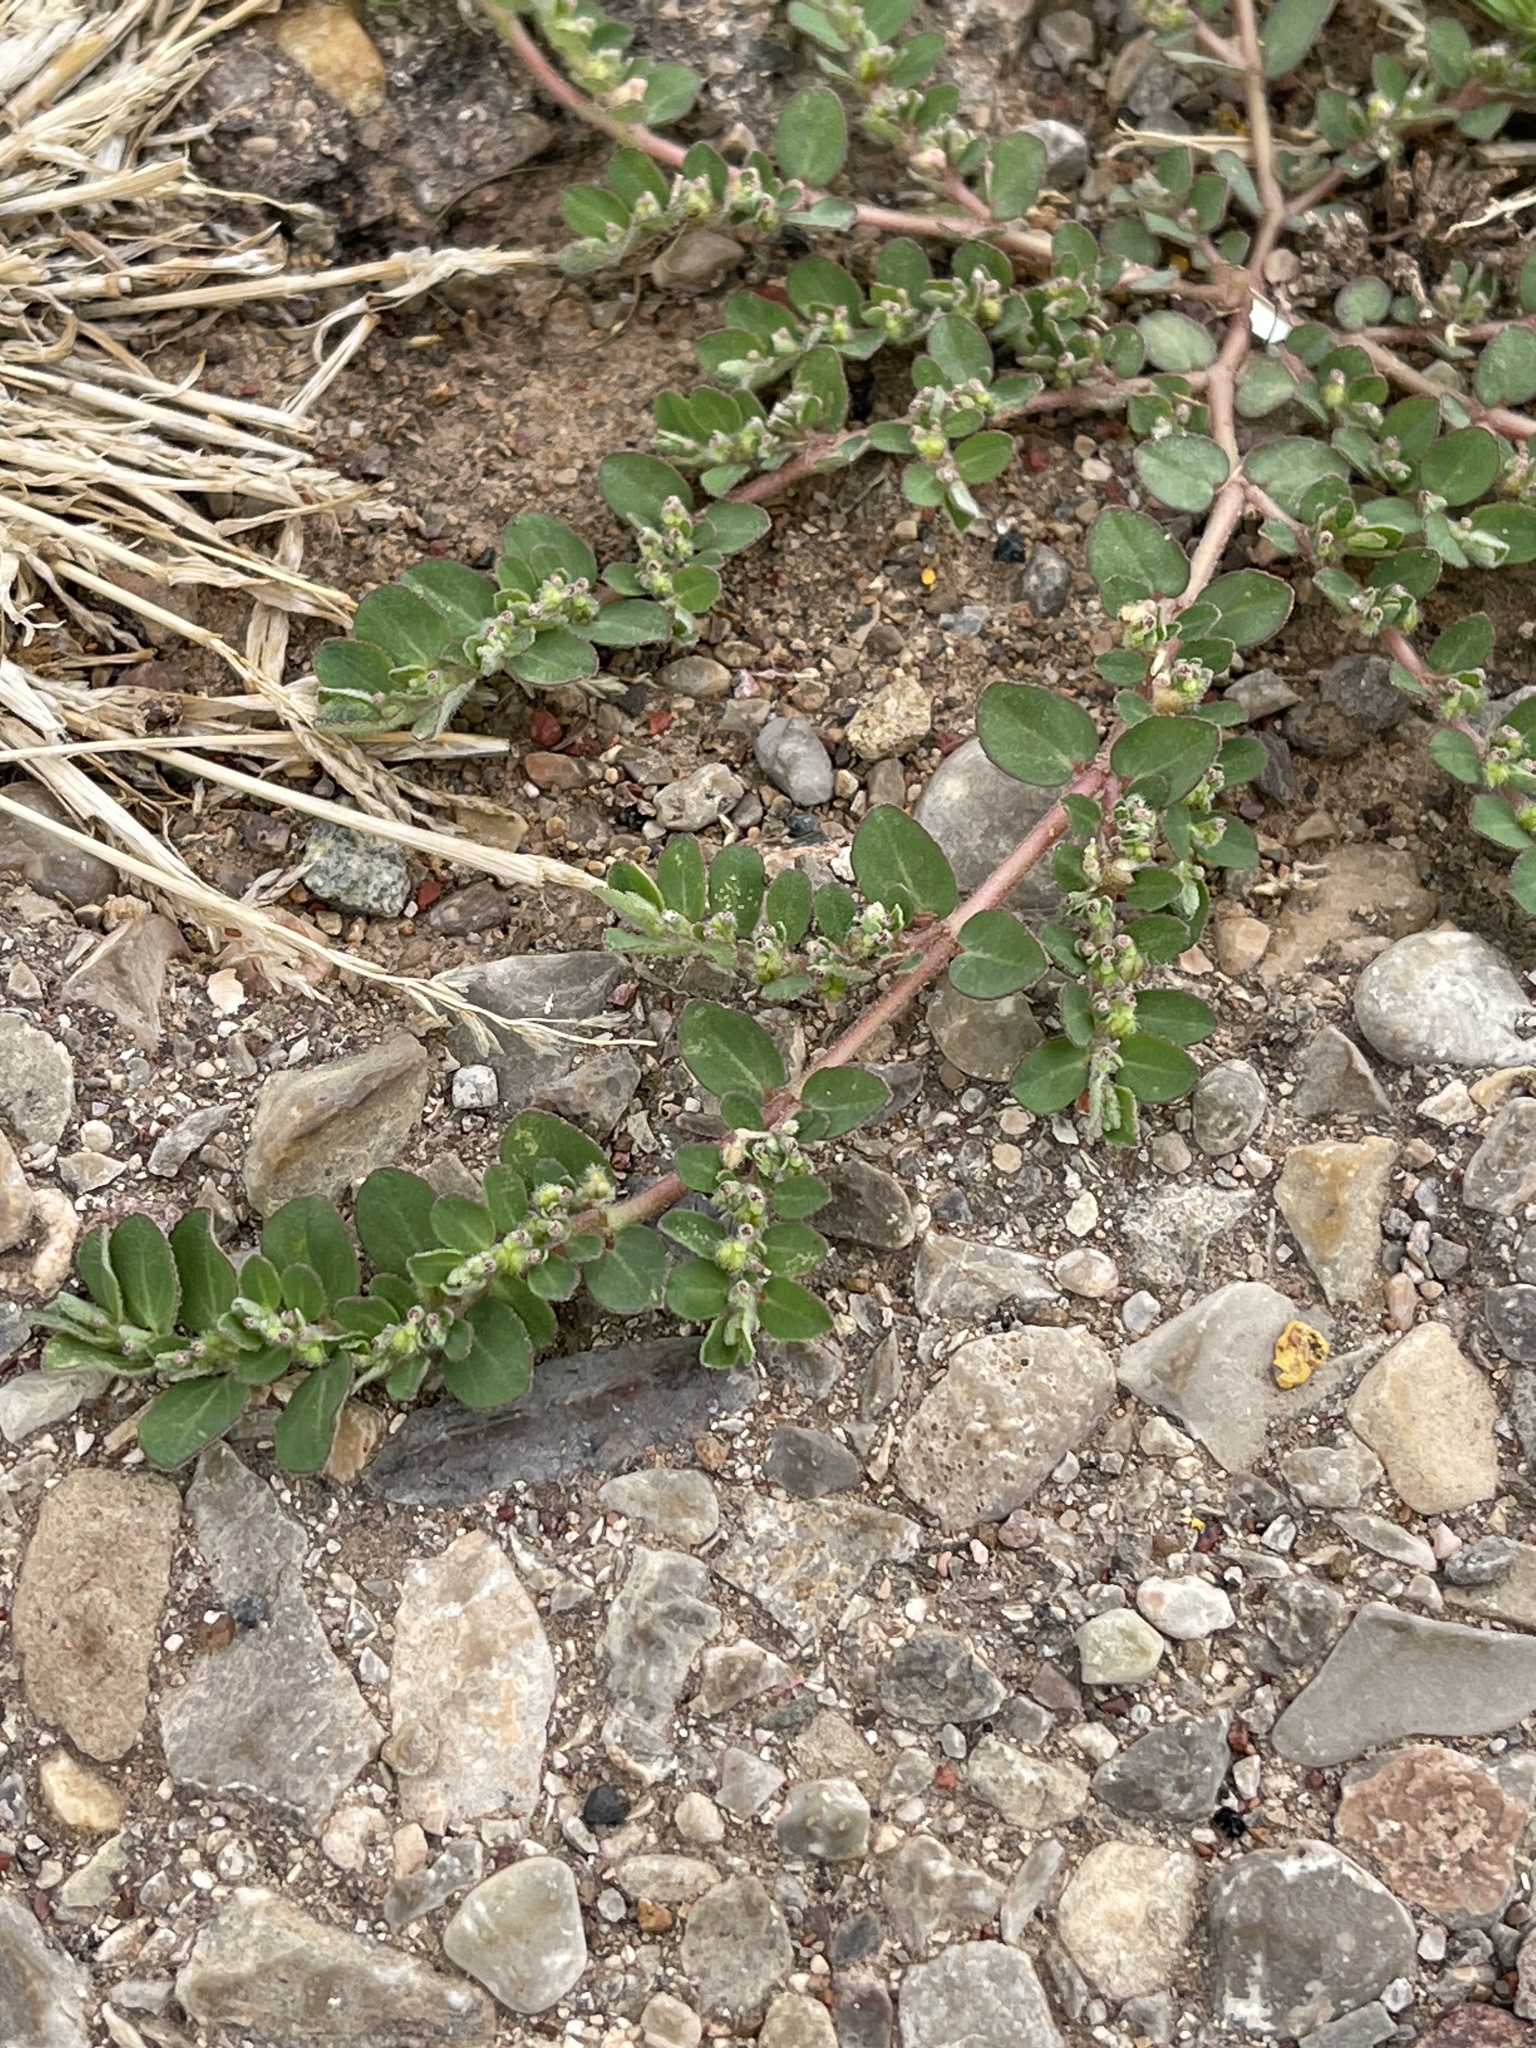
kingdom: Plantae
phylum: Tracheophyta
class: Magnoliopsida
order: Malpighiales
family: Euphorbiaceae
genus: Euphorbia
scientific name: Euphorbia prostrata
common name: Prostrate sandmat
